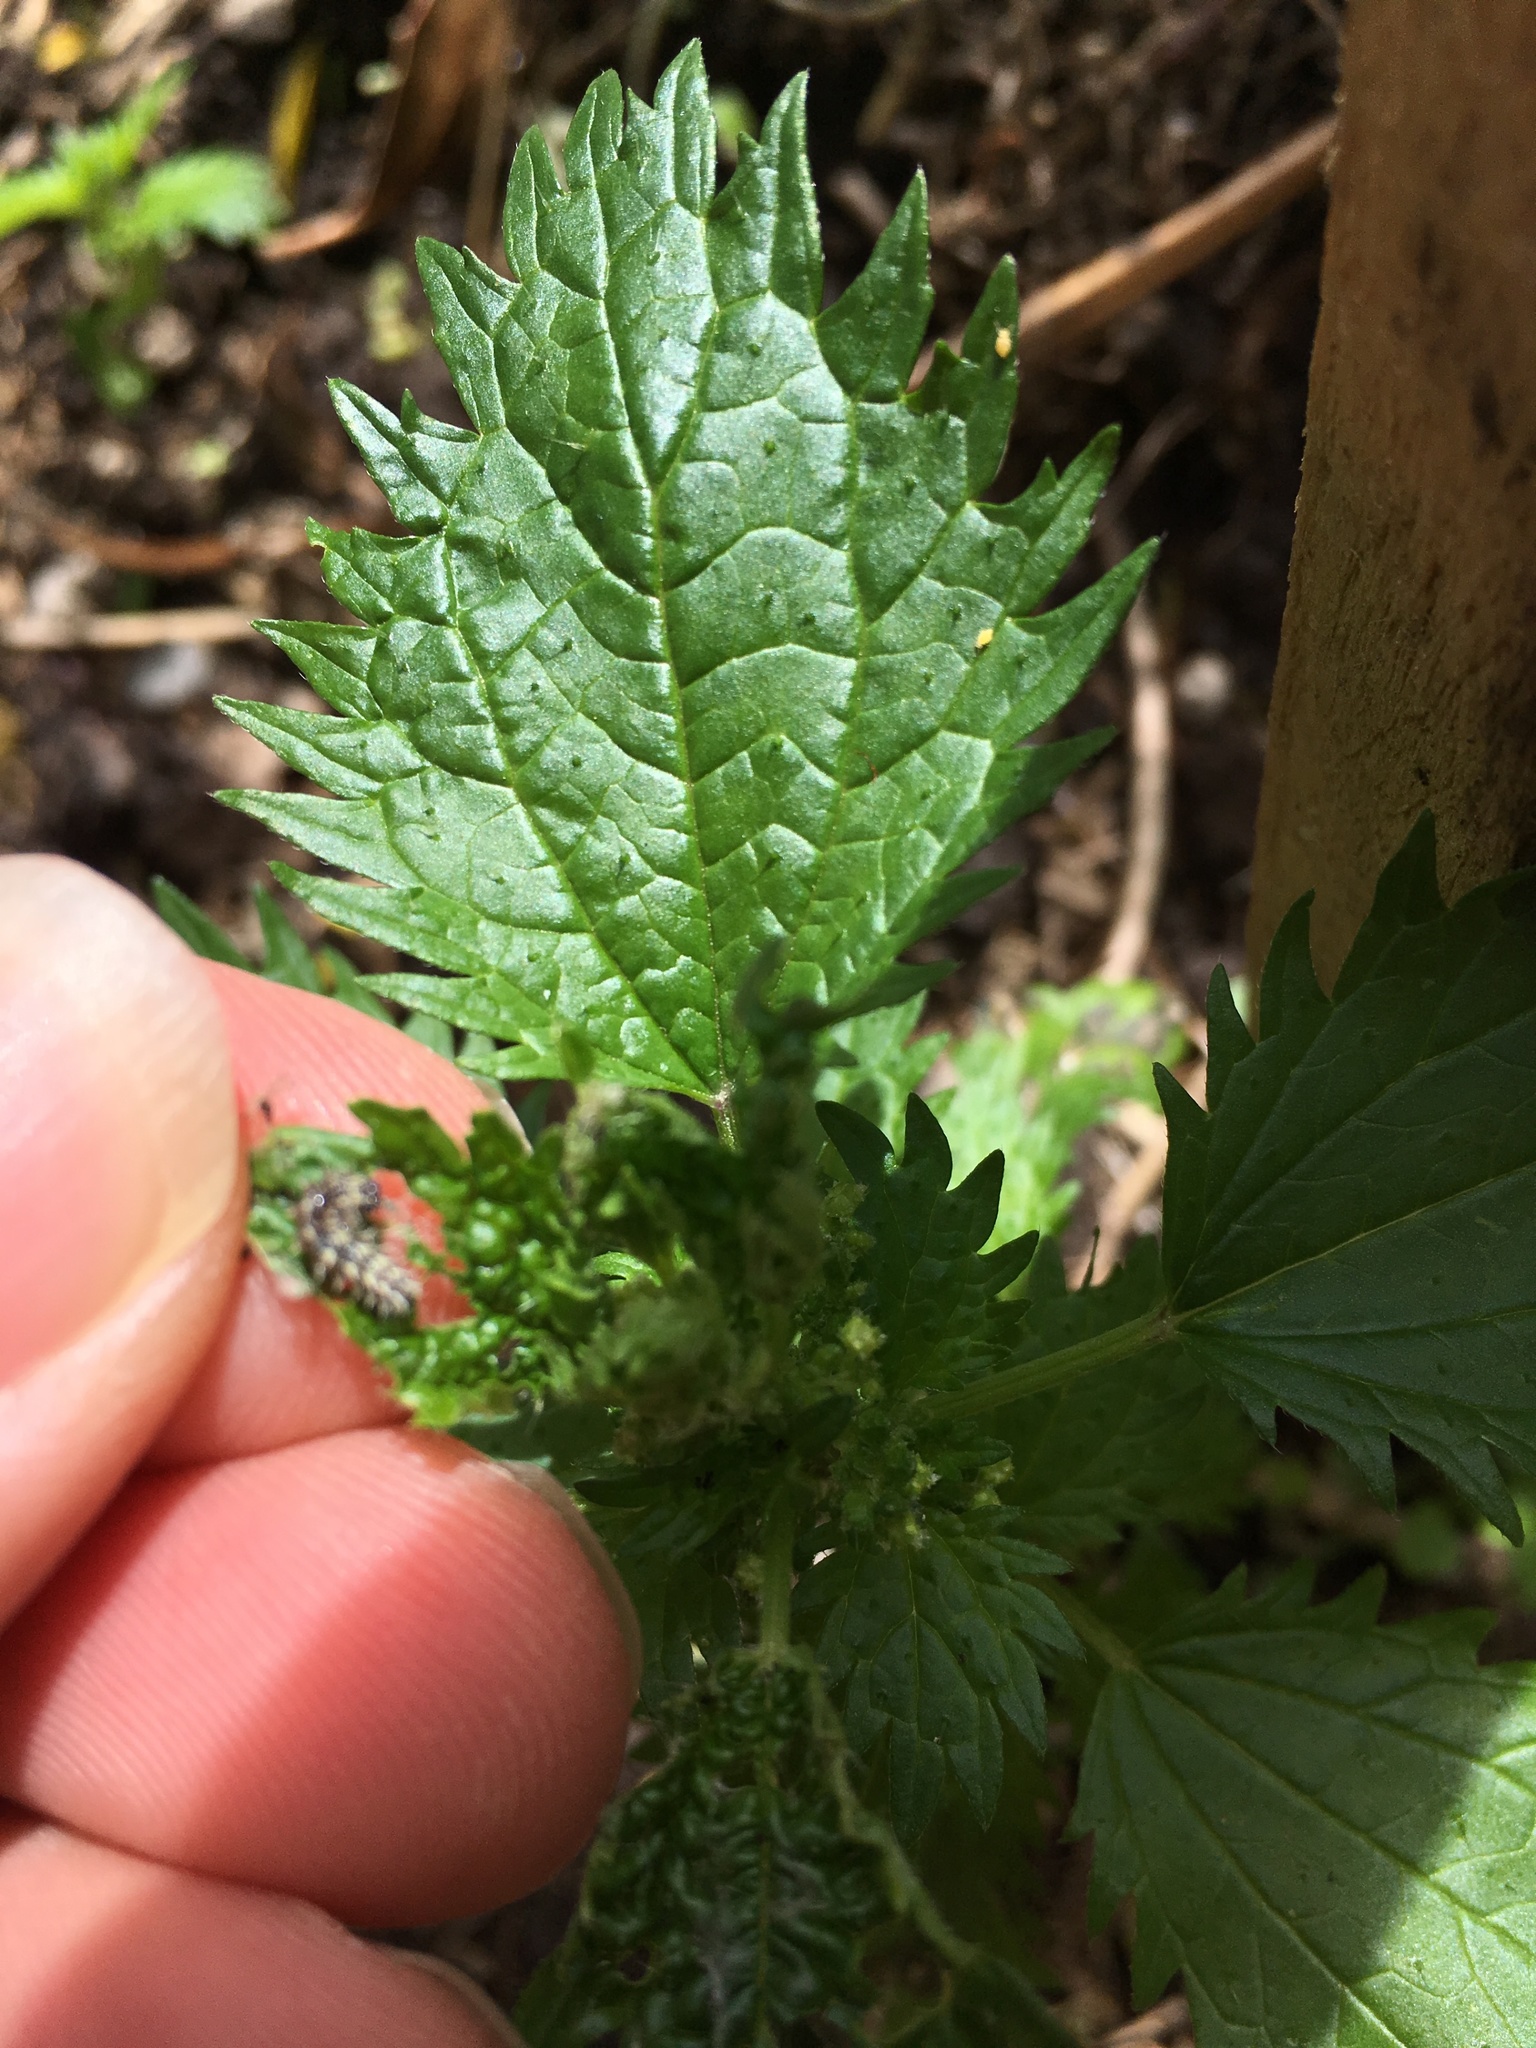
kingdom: Animalia
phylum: Arthropoda
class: Insecta
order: Lepidoptera
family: Nymphalidae
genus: Vanessa
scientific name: Vanessa itea
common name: Yellow admiral
